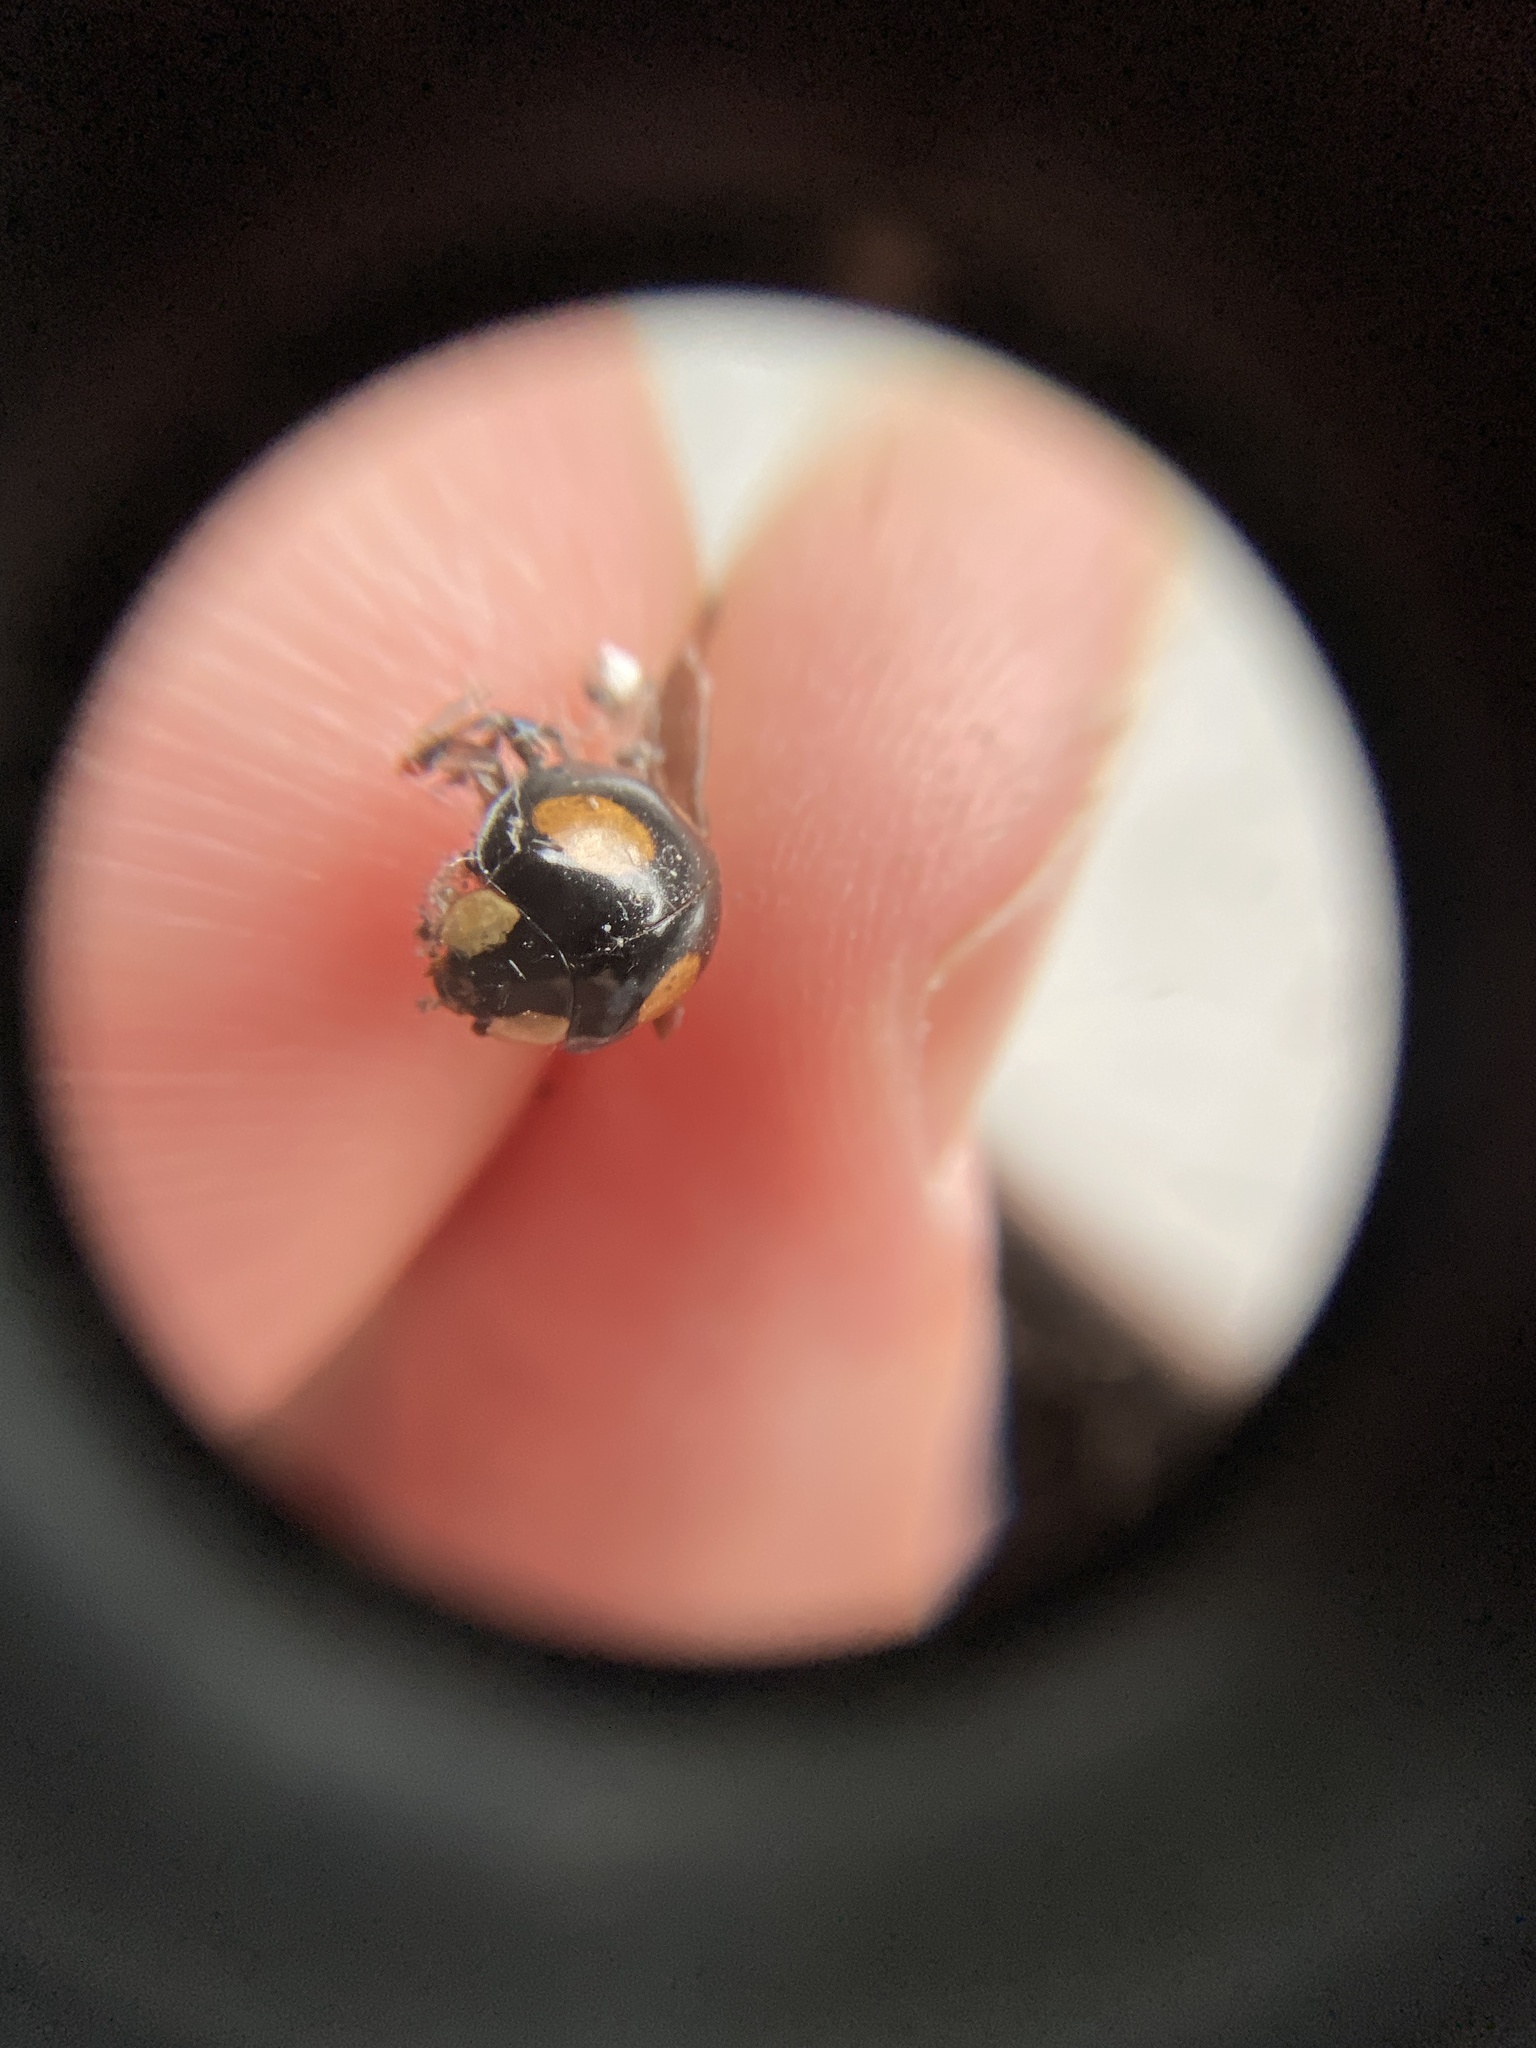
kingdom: Animalia
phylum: Arthropoda
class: Insecta
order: Coleoptera
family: Coccinellidae
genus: Harmonia
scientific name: Harmonia axyridis
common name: Harlequin ladybird
